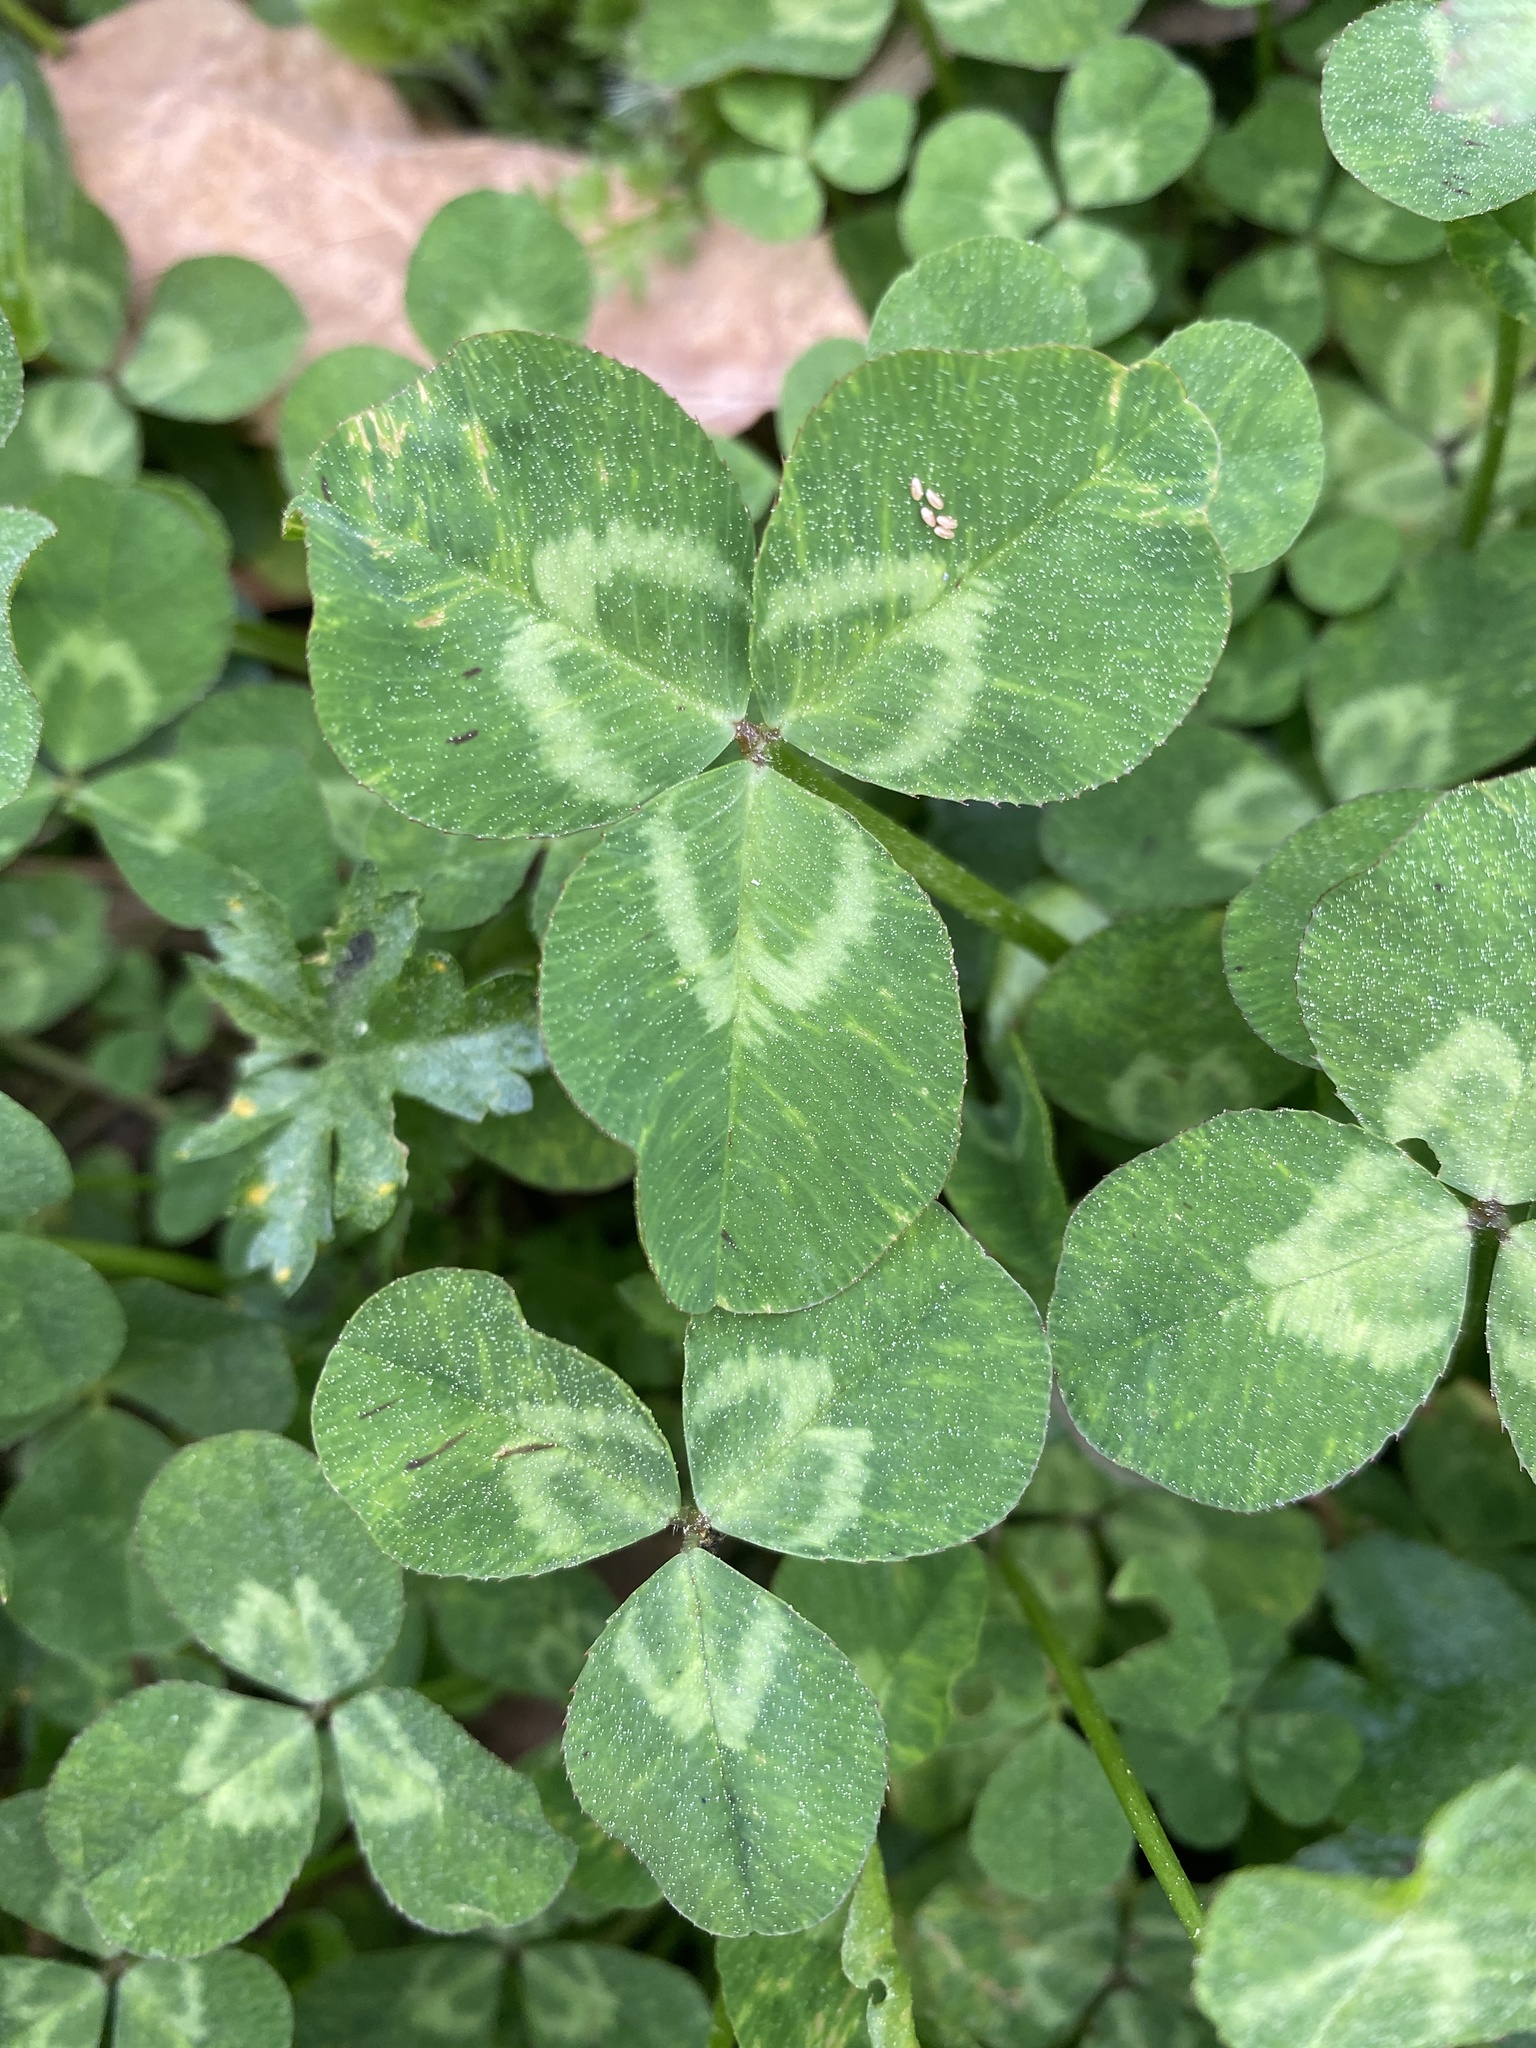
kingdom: Plantae
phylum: Tracheophyta
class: Magnoliopsida
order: Fabales
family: Fabaceae
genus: Trifolium
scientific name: Trifolium repens
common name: White clover
